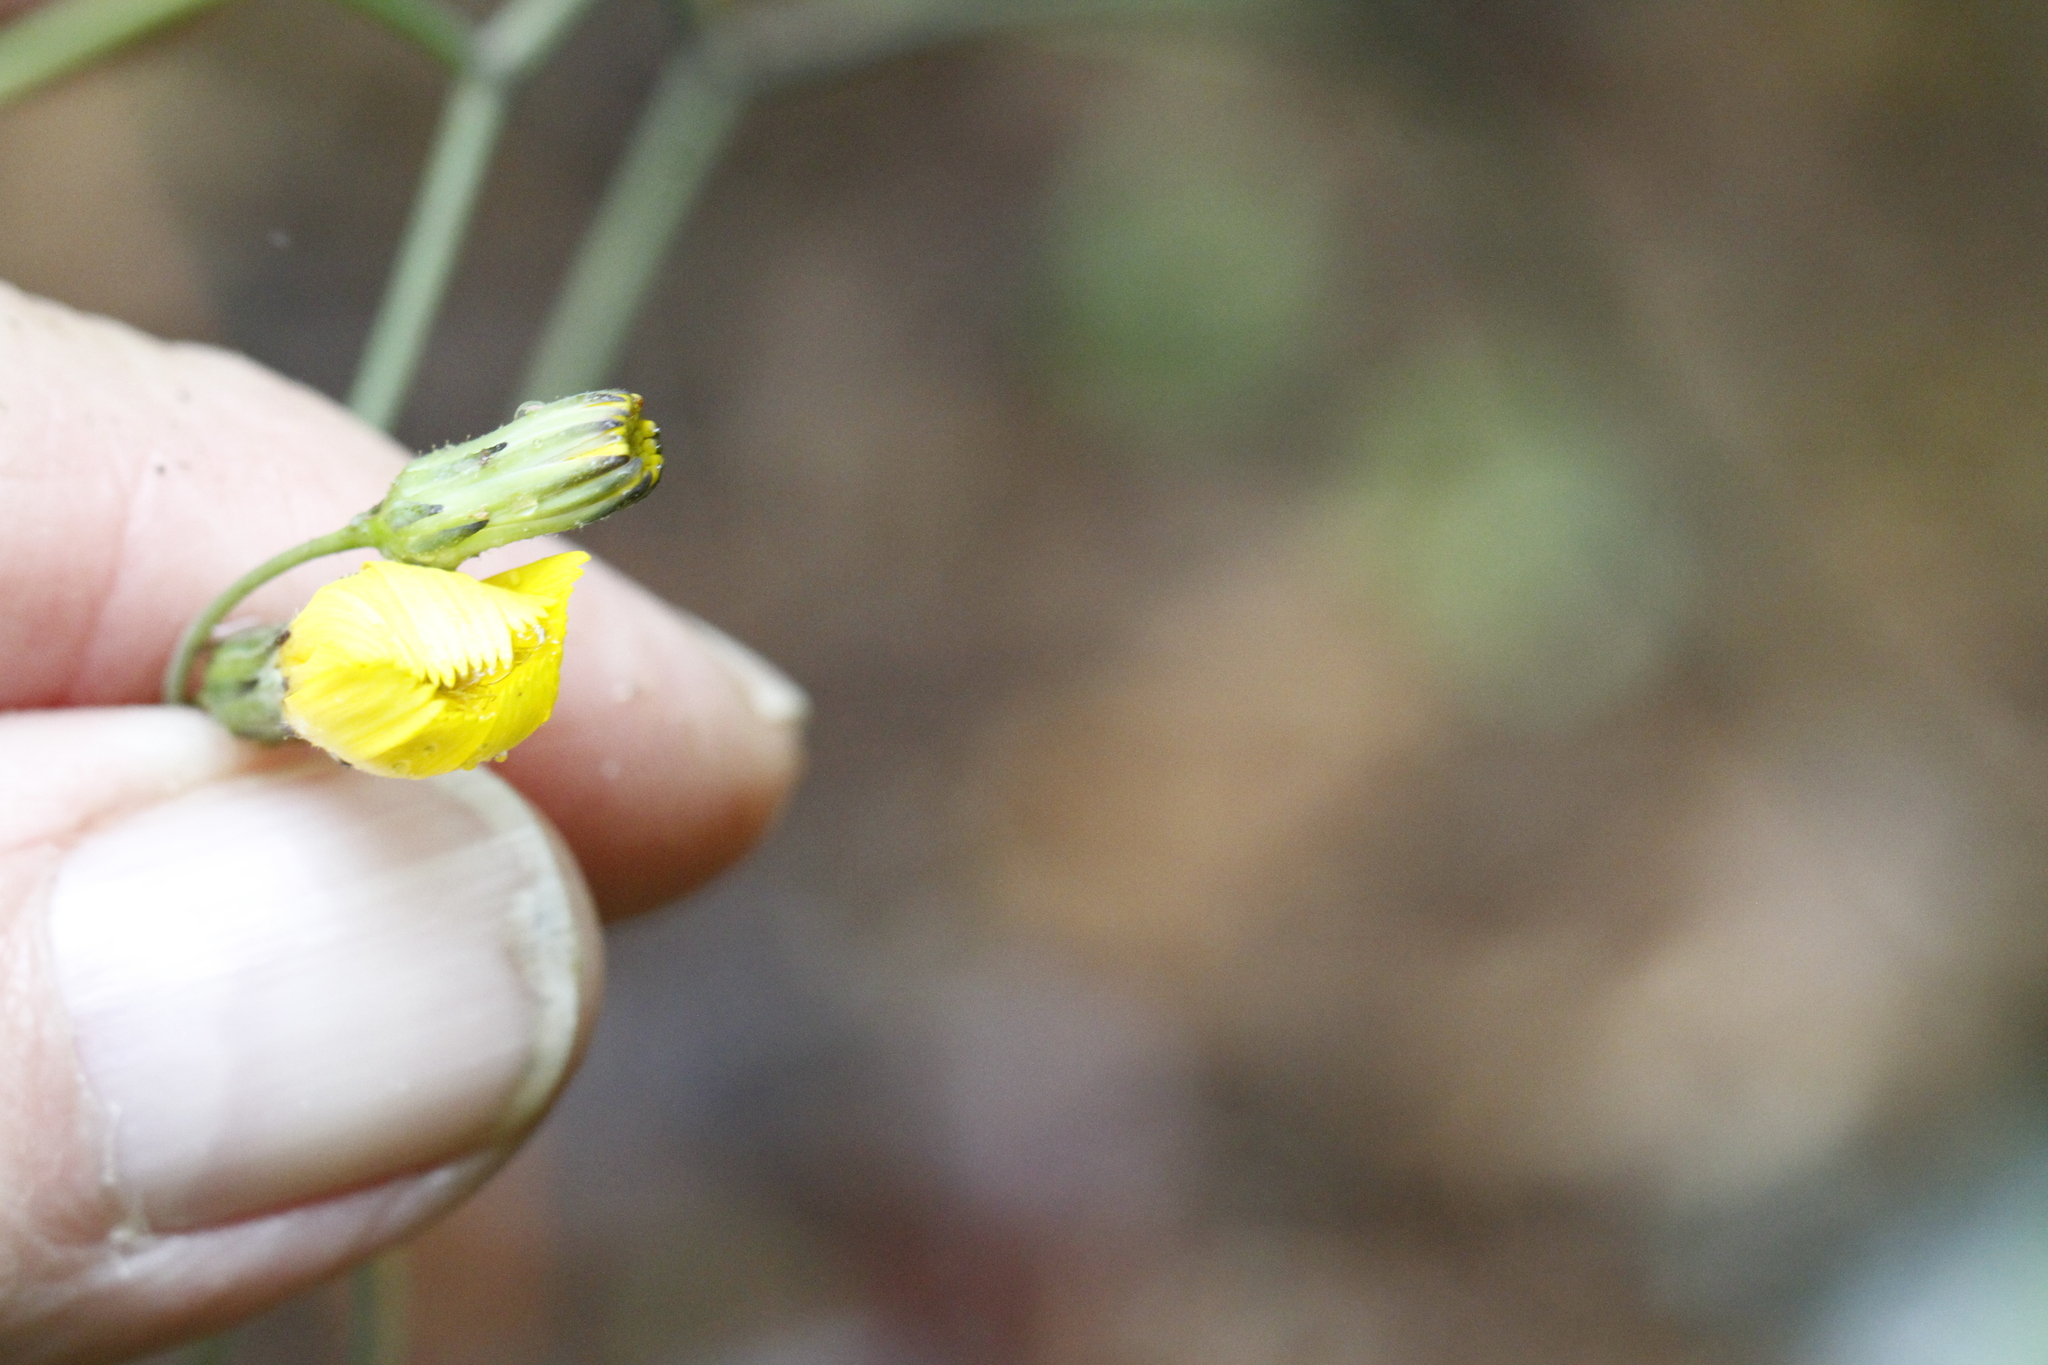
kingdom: Plantae
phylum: Tracheophyta
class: Magnoliopsida
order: Asterales
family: Asteraceae
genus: Hieracium
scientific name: Hieracium venosum
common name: Rattlesnake hawkweed
